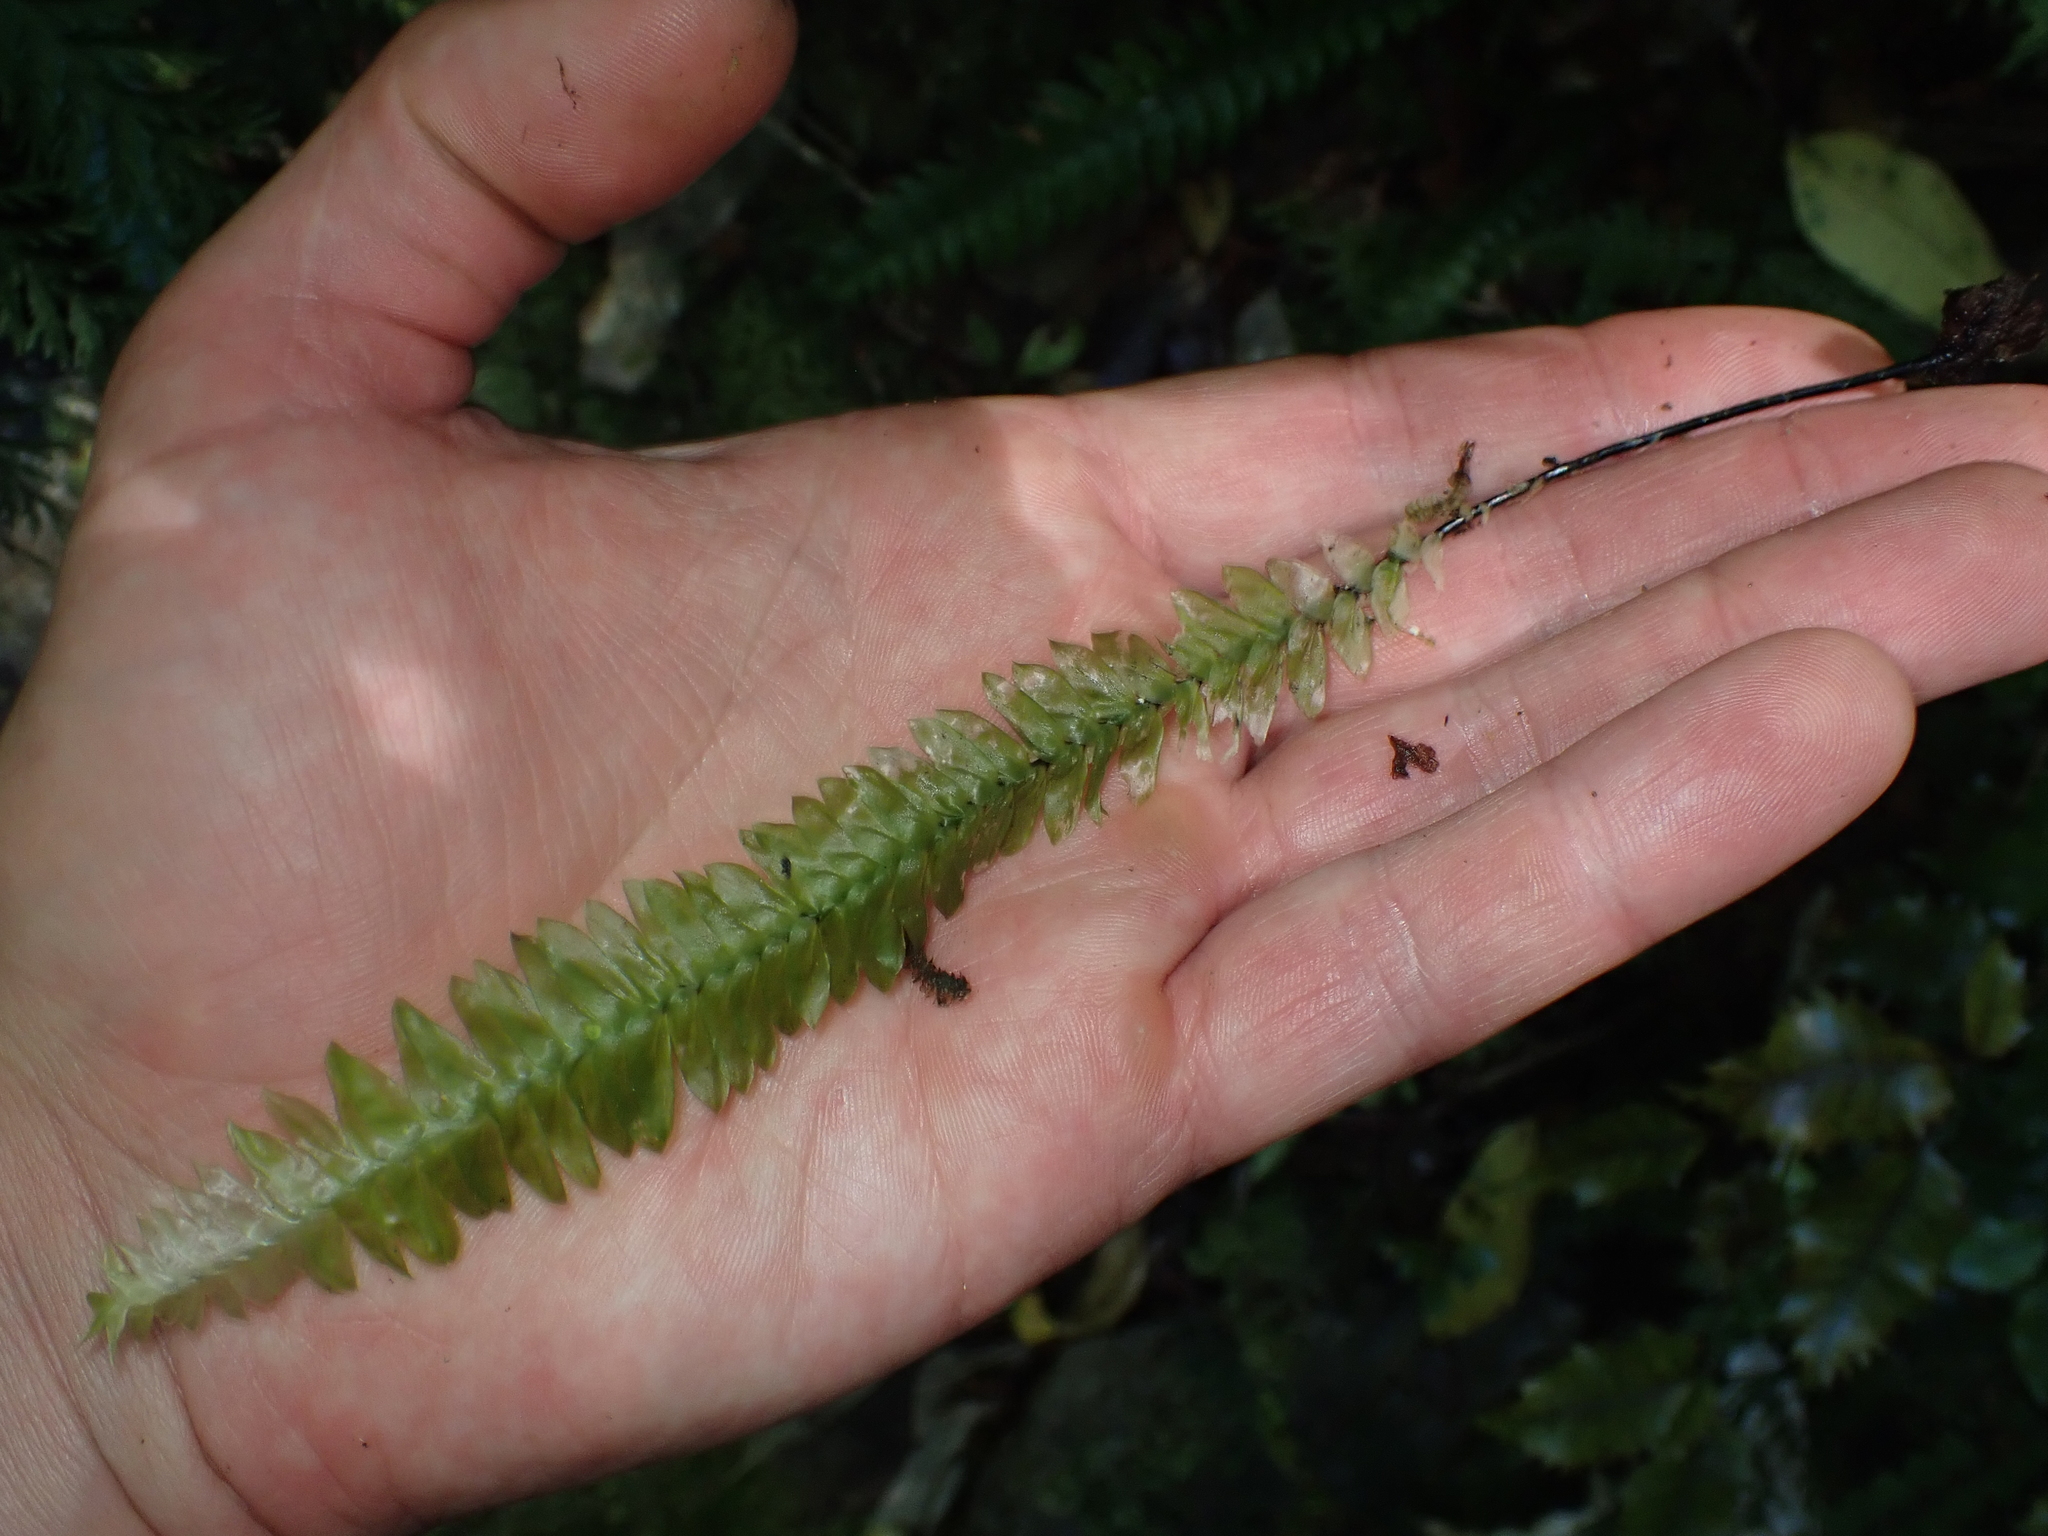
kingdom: Plantae
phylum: Bryophyta
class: Bryopsida
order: Hypopterygiales
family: Hypopterygiaceae
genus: Cyathophorum
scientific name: Cyathophorum bulbosum
